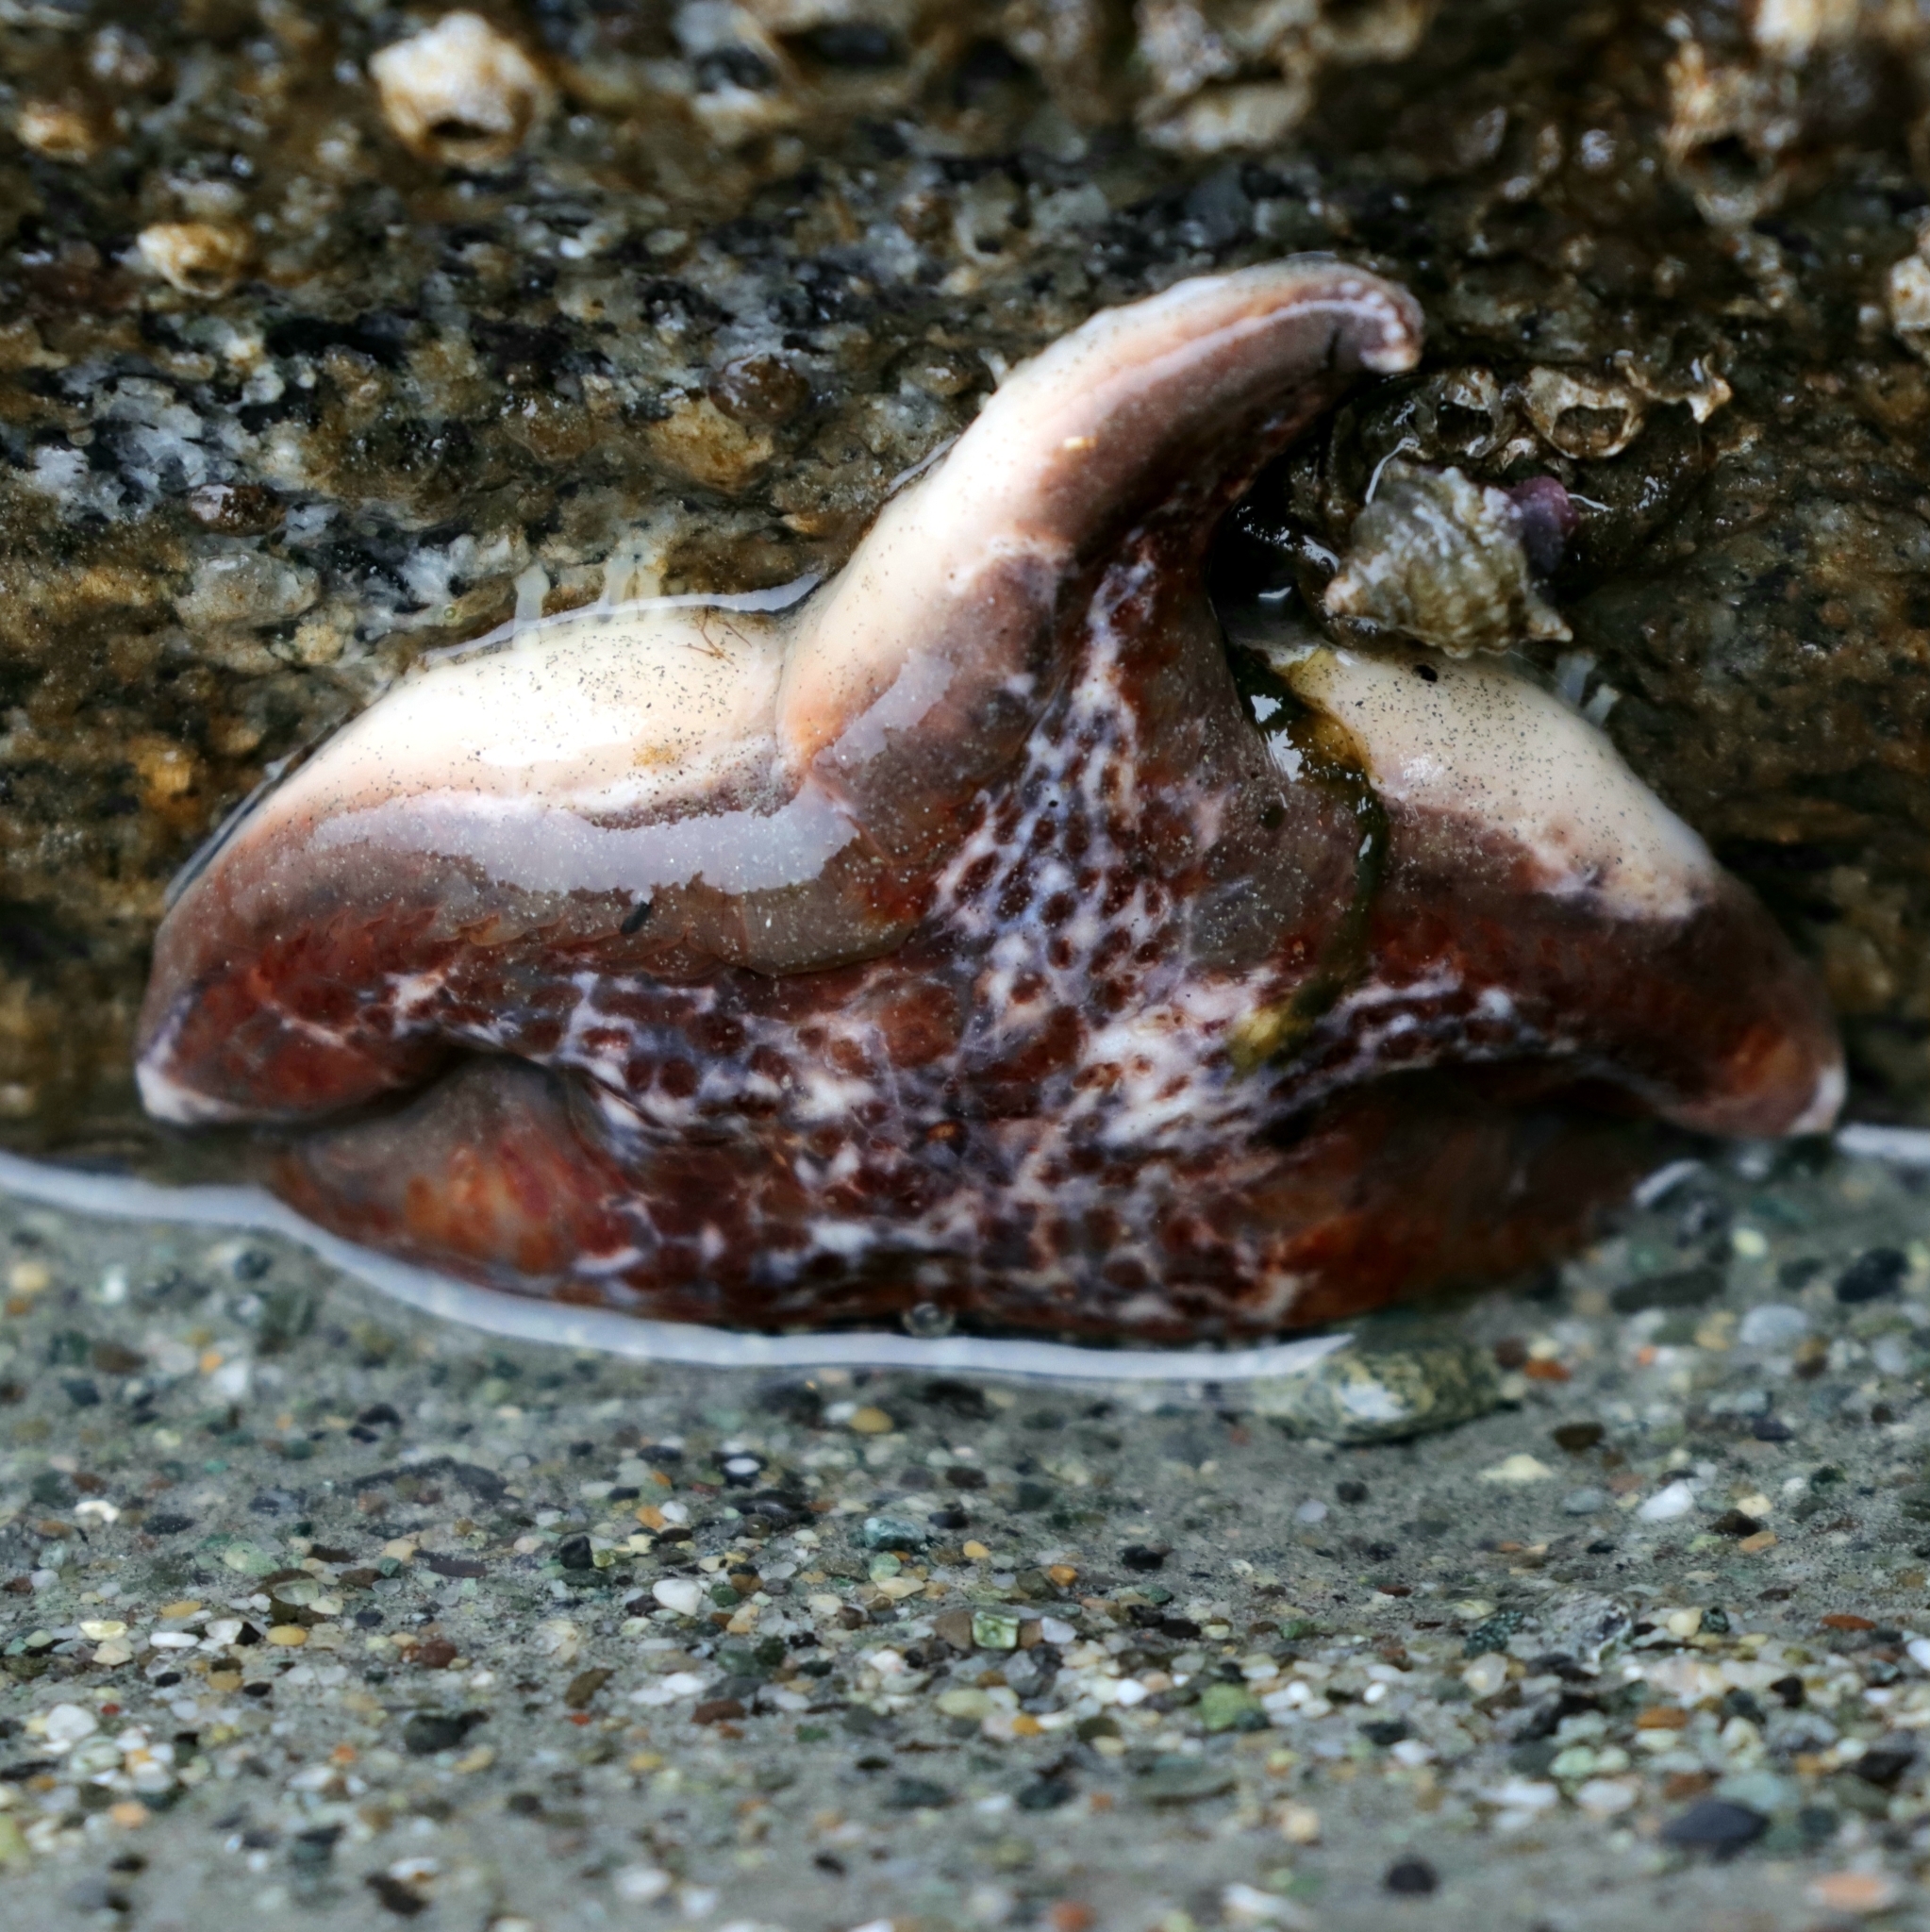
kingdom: Animalia
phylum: Echinodermata
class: Asteroidea
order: Valvatida
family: Asteropseidae
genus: Dermasterias
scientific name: Dermasterias imbricata
